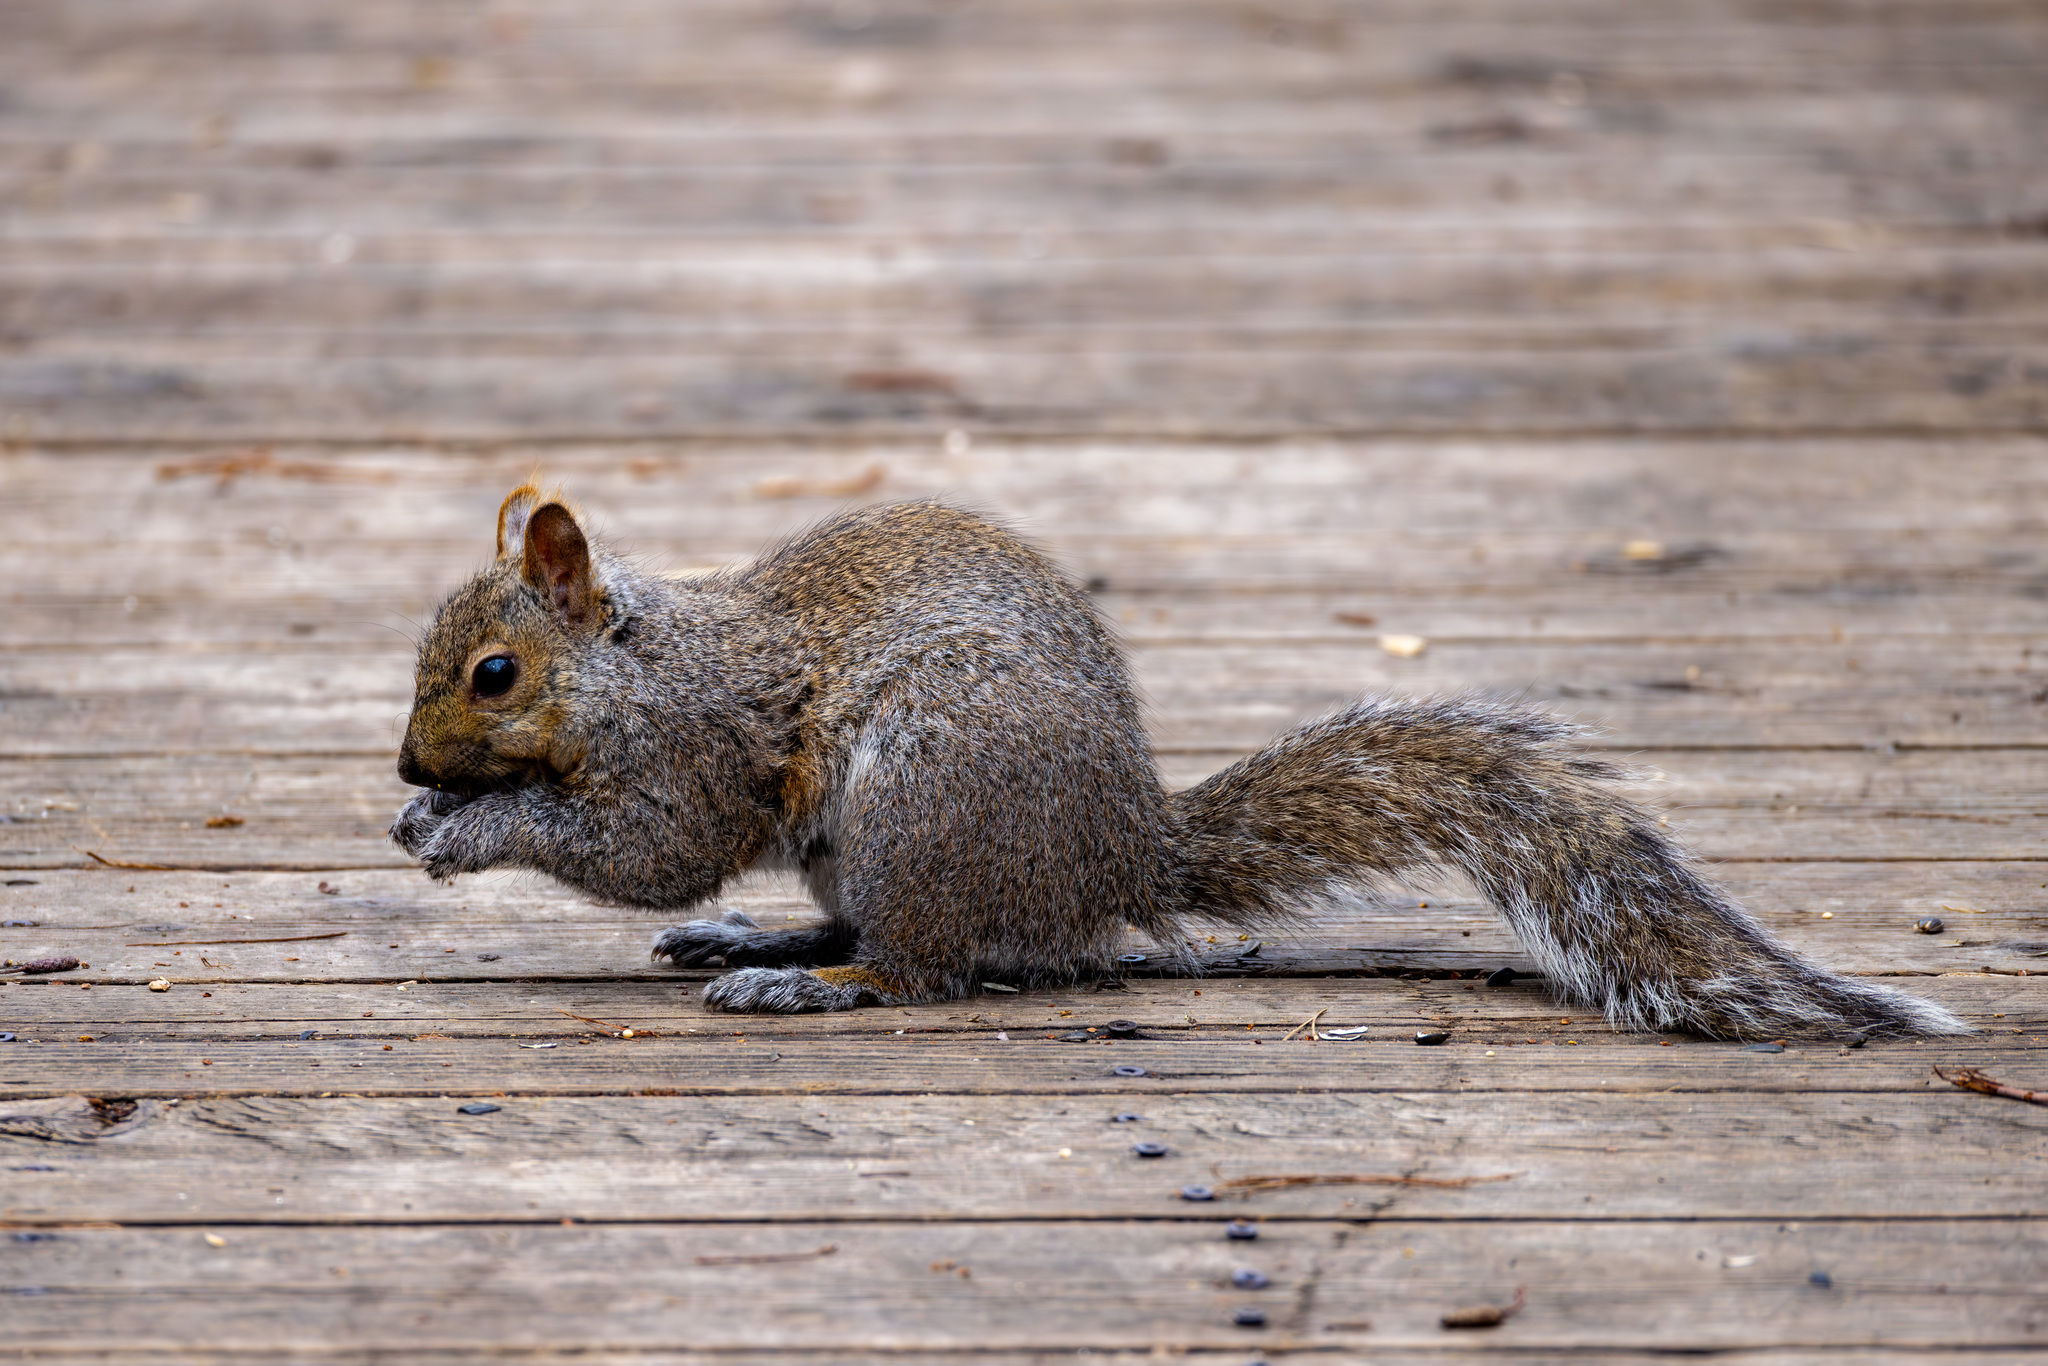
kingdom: Animalia
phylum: Chordata
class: Mammalia
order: Rodentia
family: Sciuridae
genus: Sciurus
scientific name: Sciurus carolinensis
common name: Eastern gray squirrel
